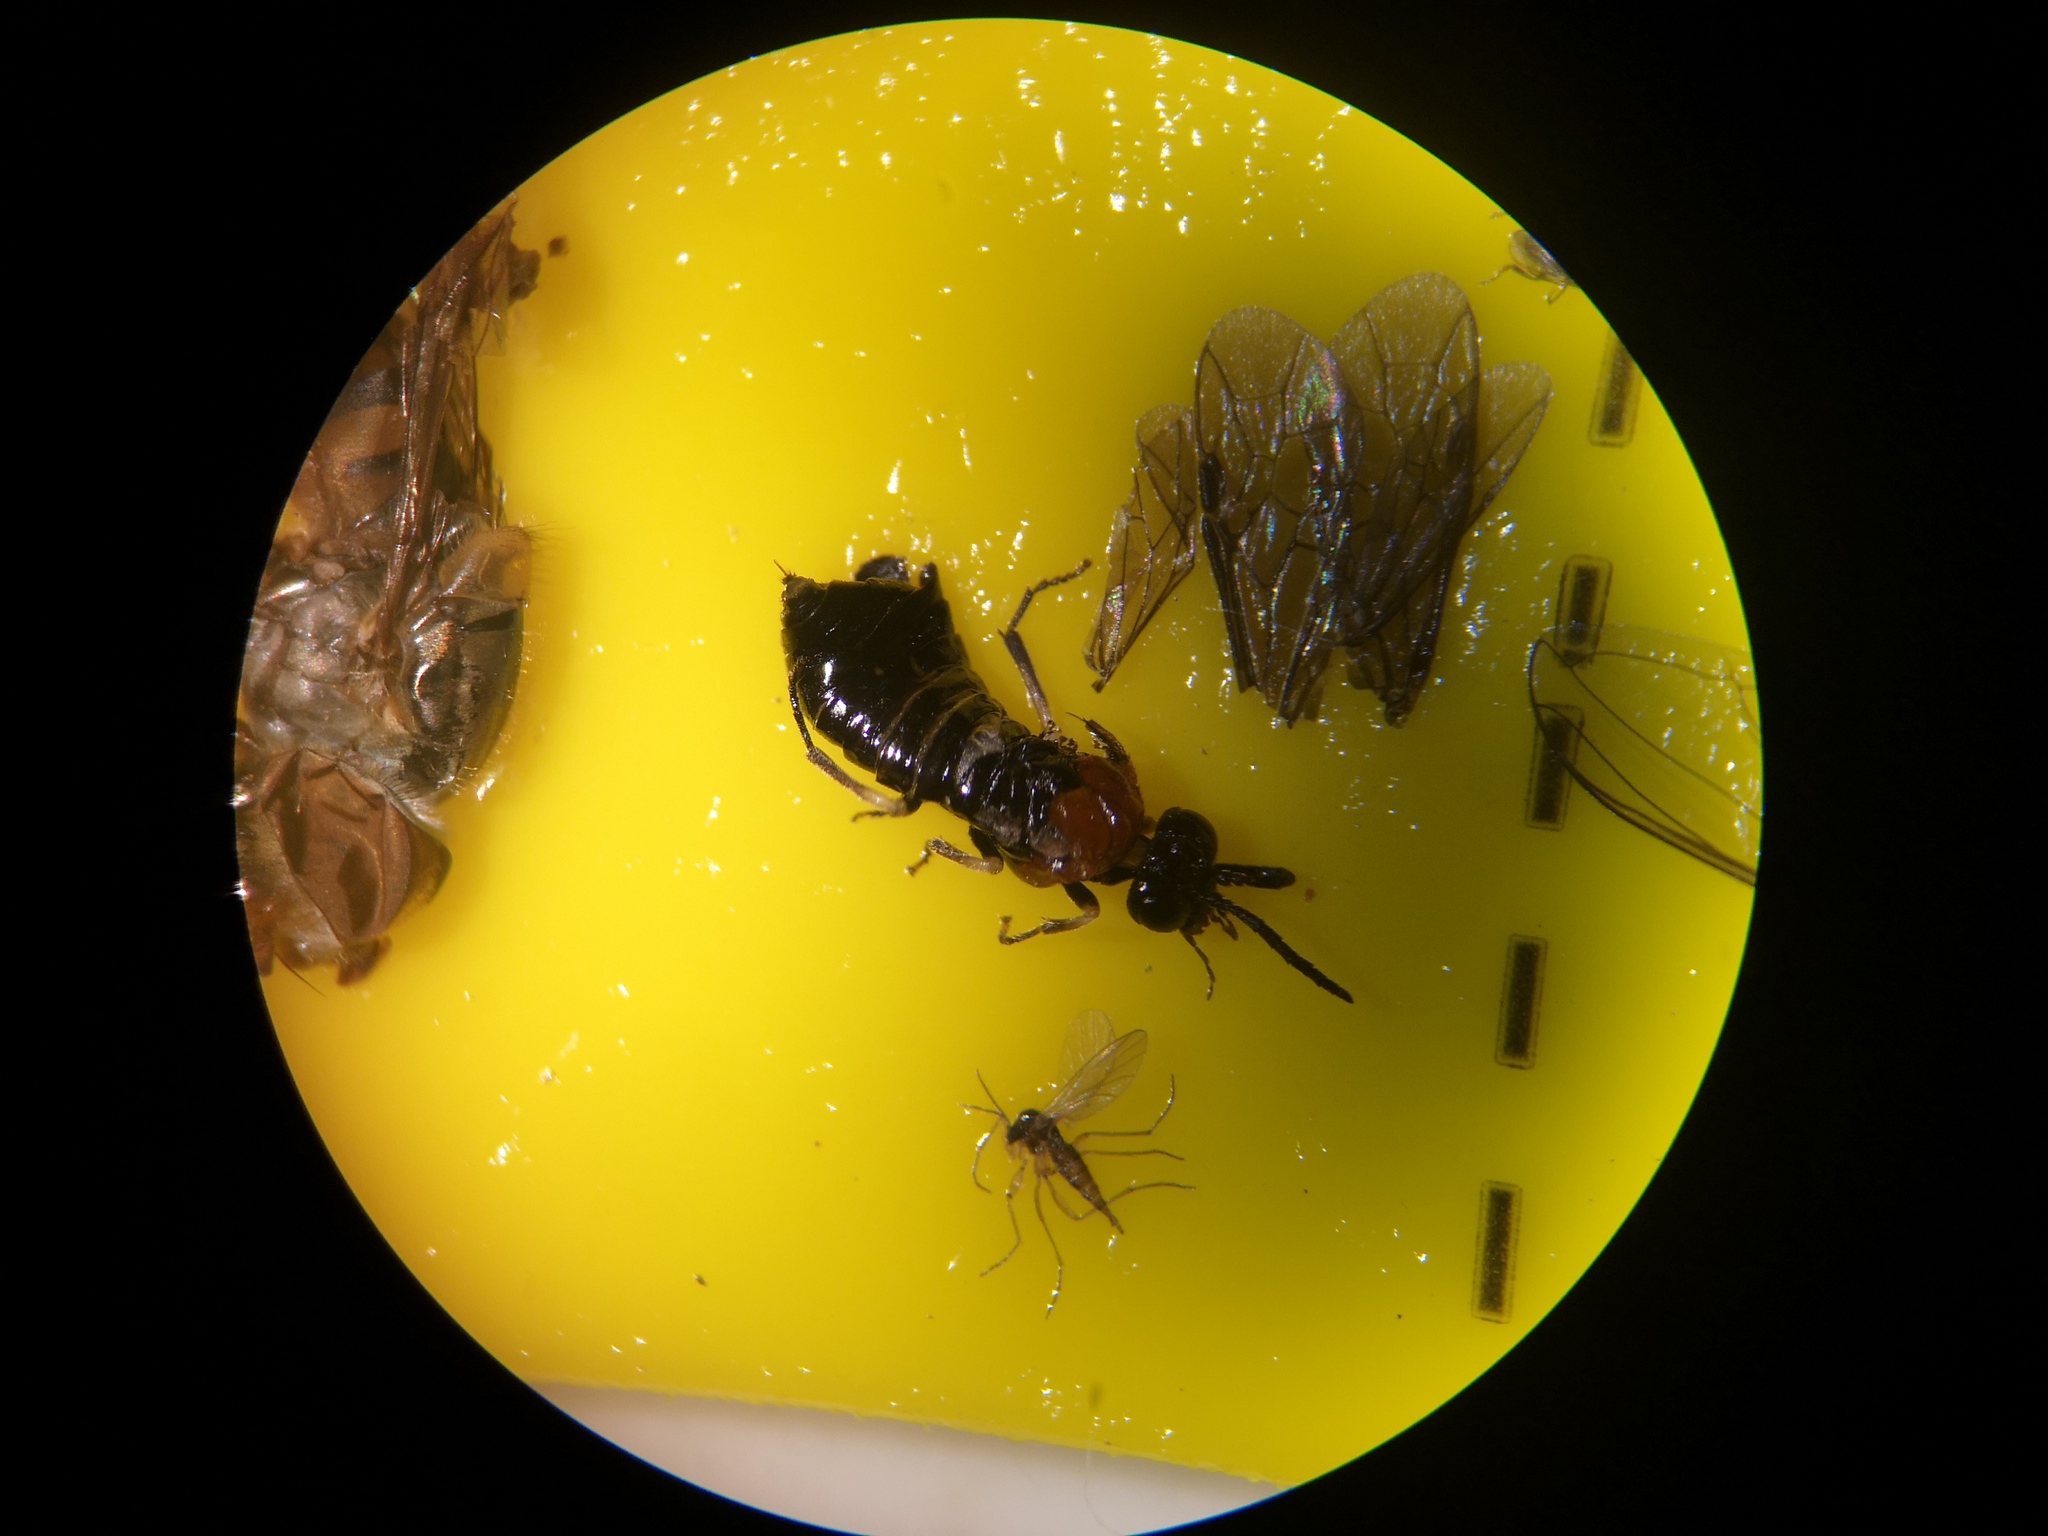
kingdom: Animalia
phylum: Arthropoda
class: Insecta
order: Hymenoptera
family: Tenthredinidae
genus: Eutomostethus
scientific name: Eutomostethus ephippium
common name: Tenthredid wasp
